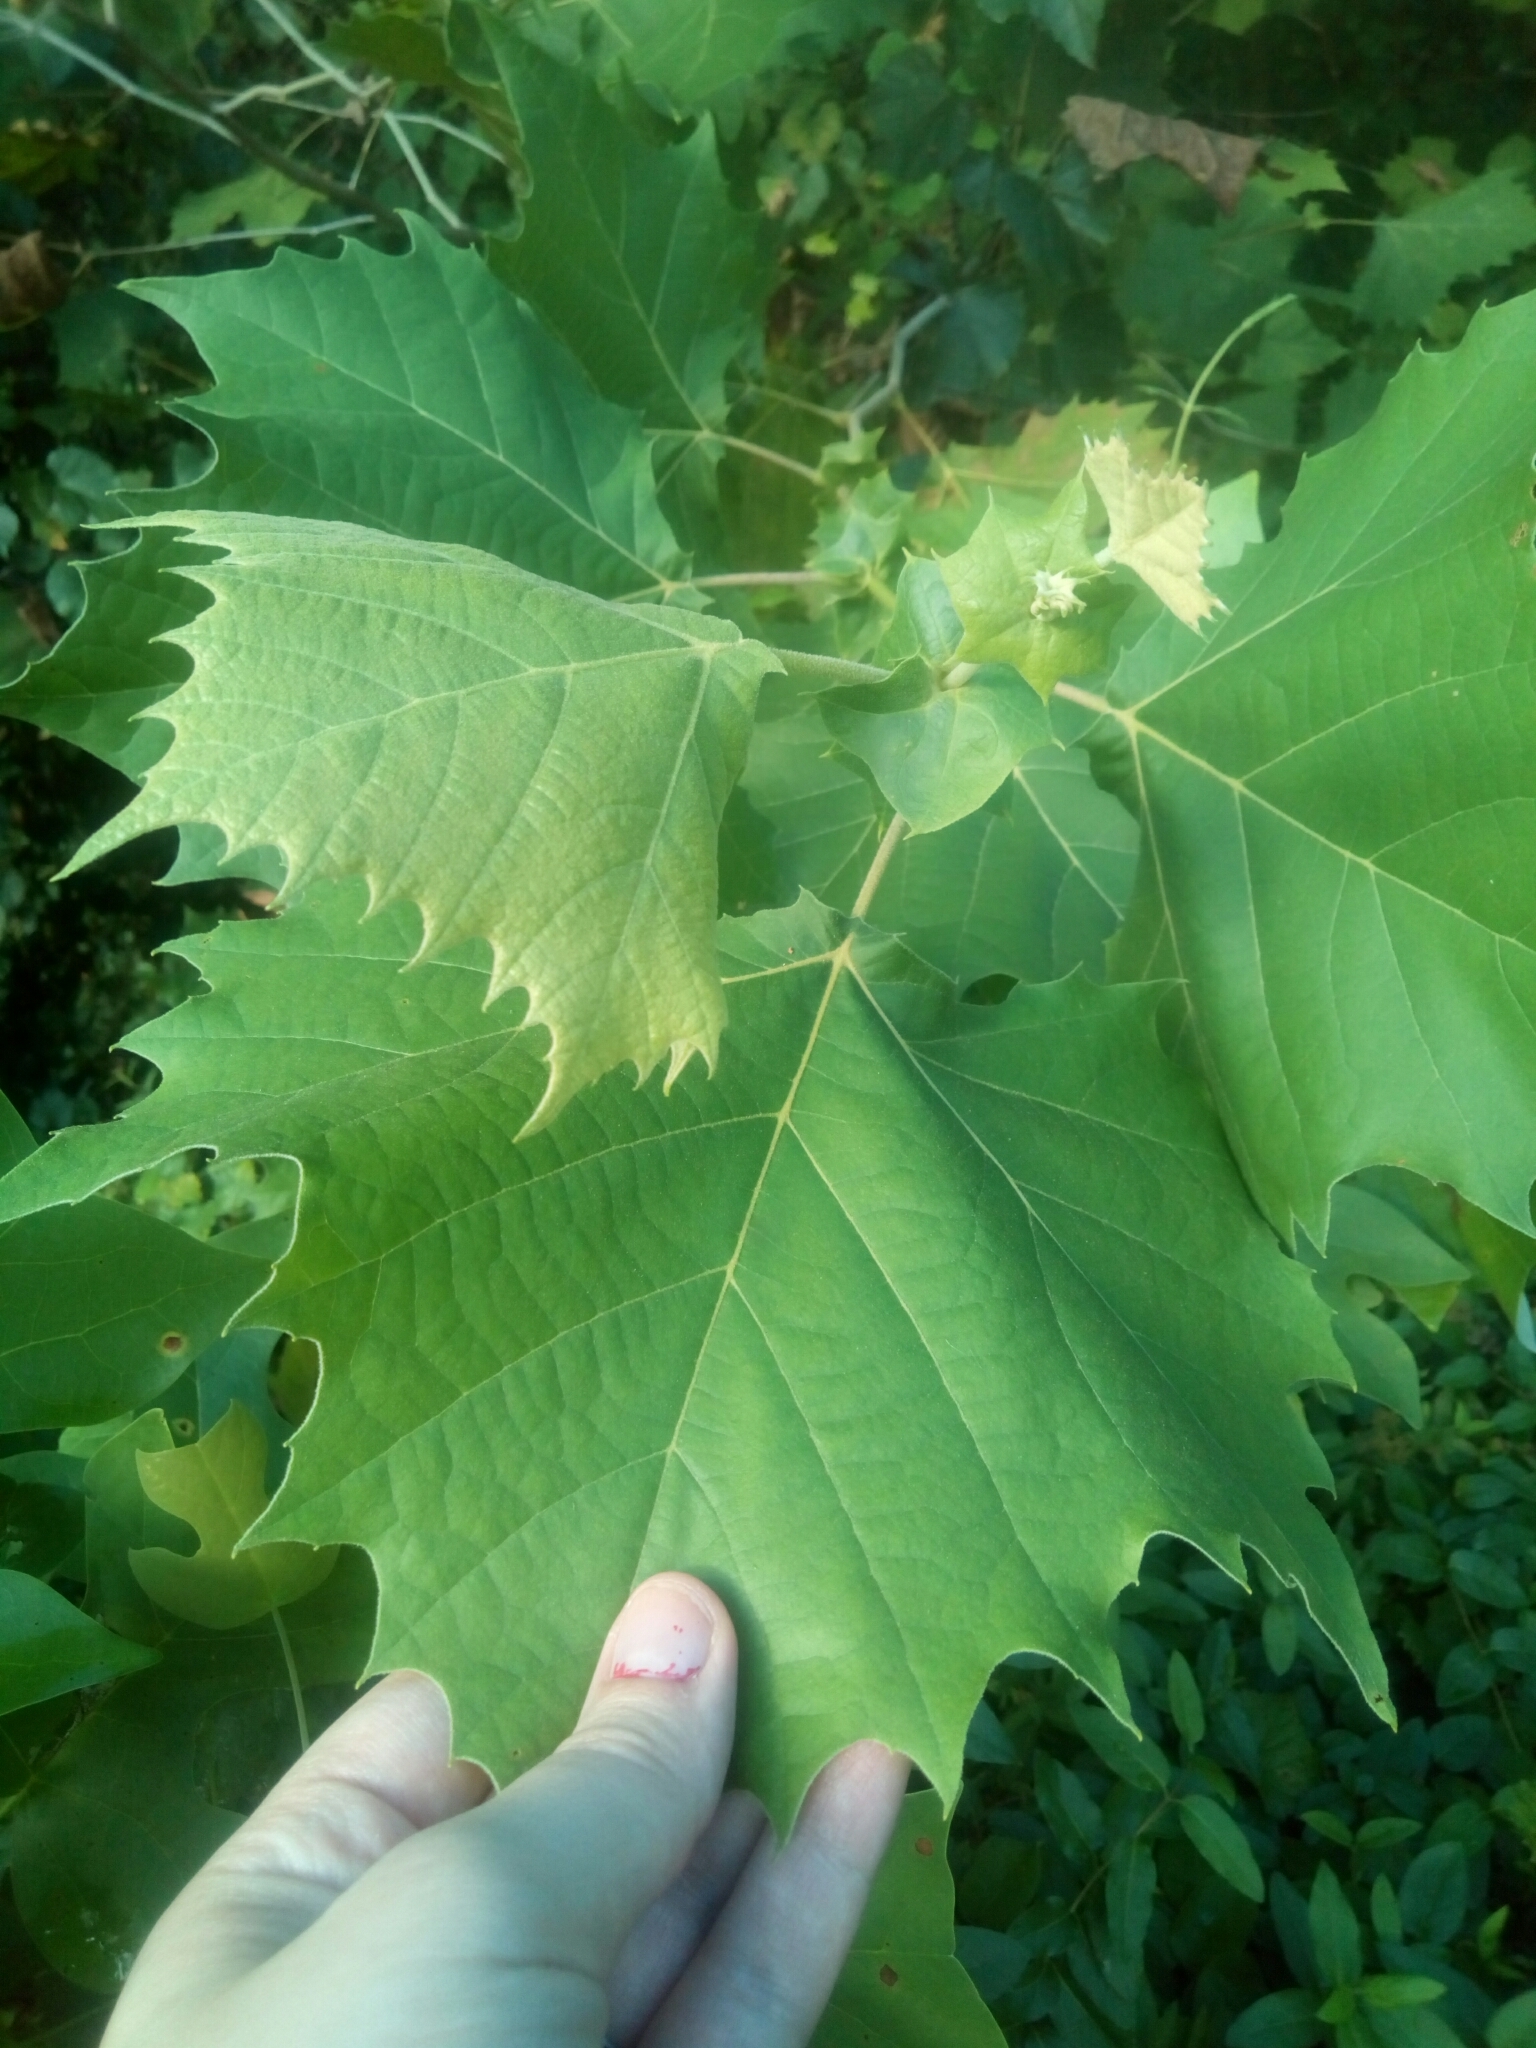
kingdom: Plantae
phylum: Tracheophyta
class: Magnoliopsida
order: Proteales
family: Platanaceae
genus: Platanus
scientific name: Platanus occidentalis
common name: American sycamore
